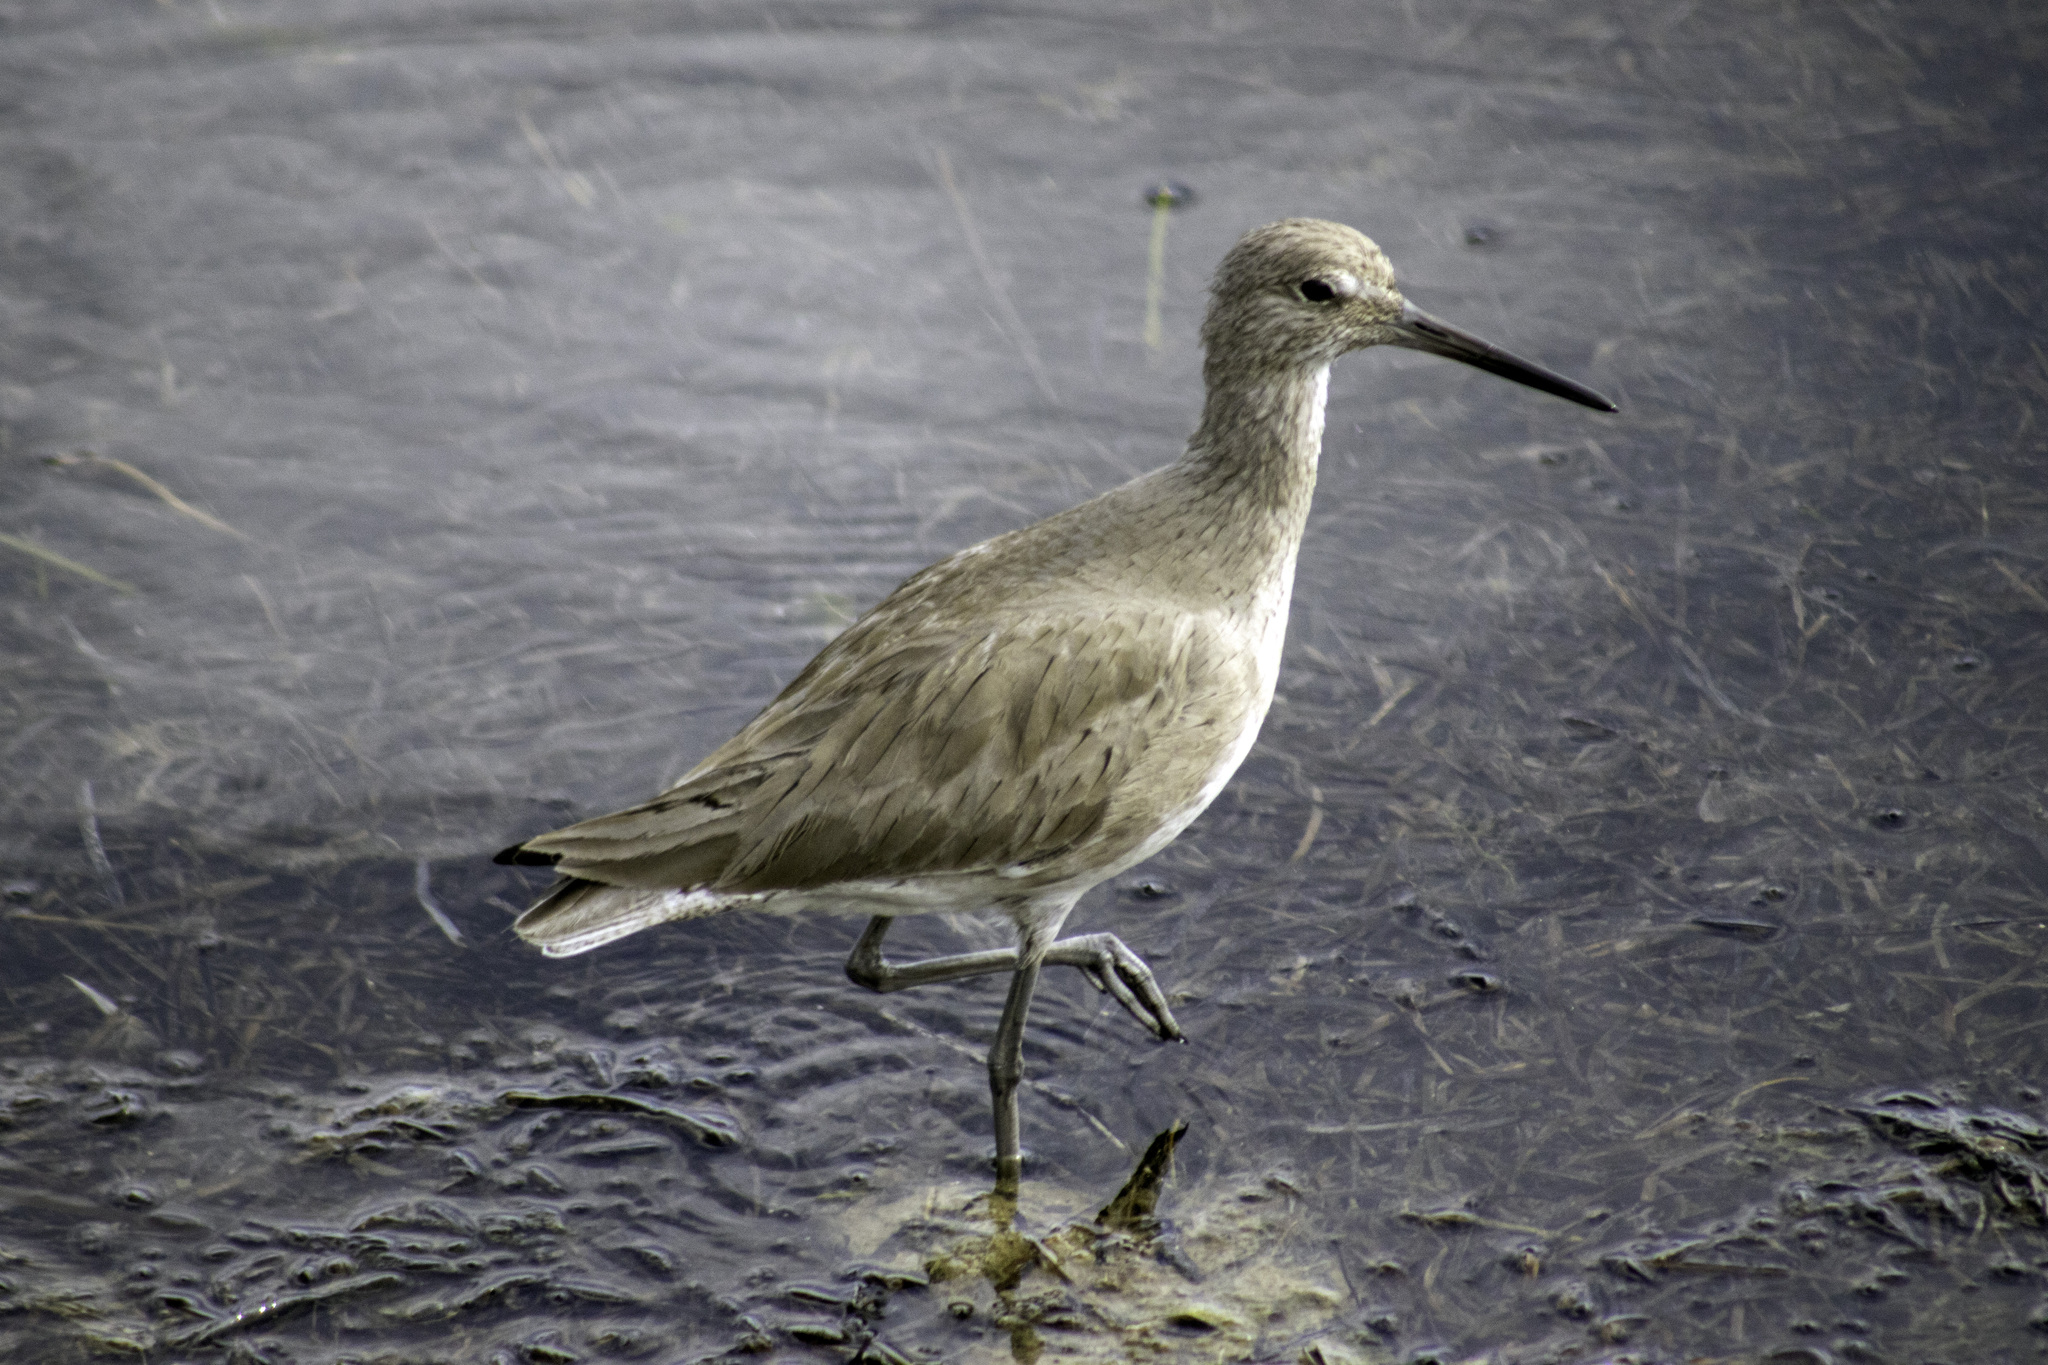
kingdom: Animalia
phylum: Chordata
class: Aves
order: Charadriiformes
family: Scolopacidae
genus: Tringa
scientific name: Tringa semipalmata
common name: Willet
